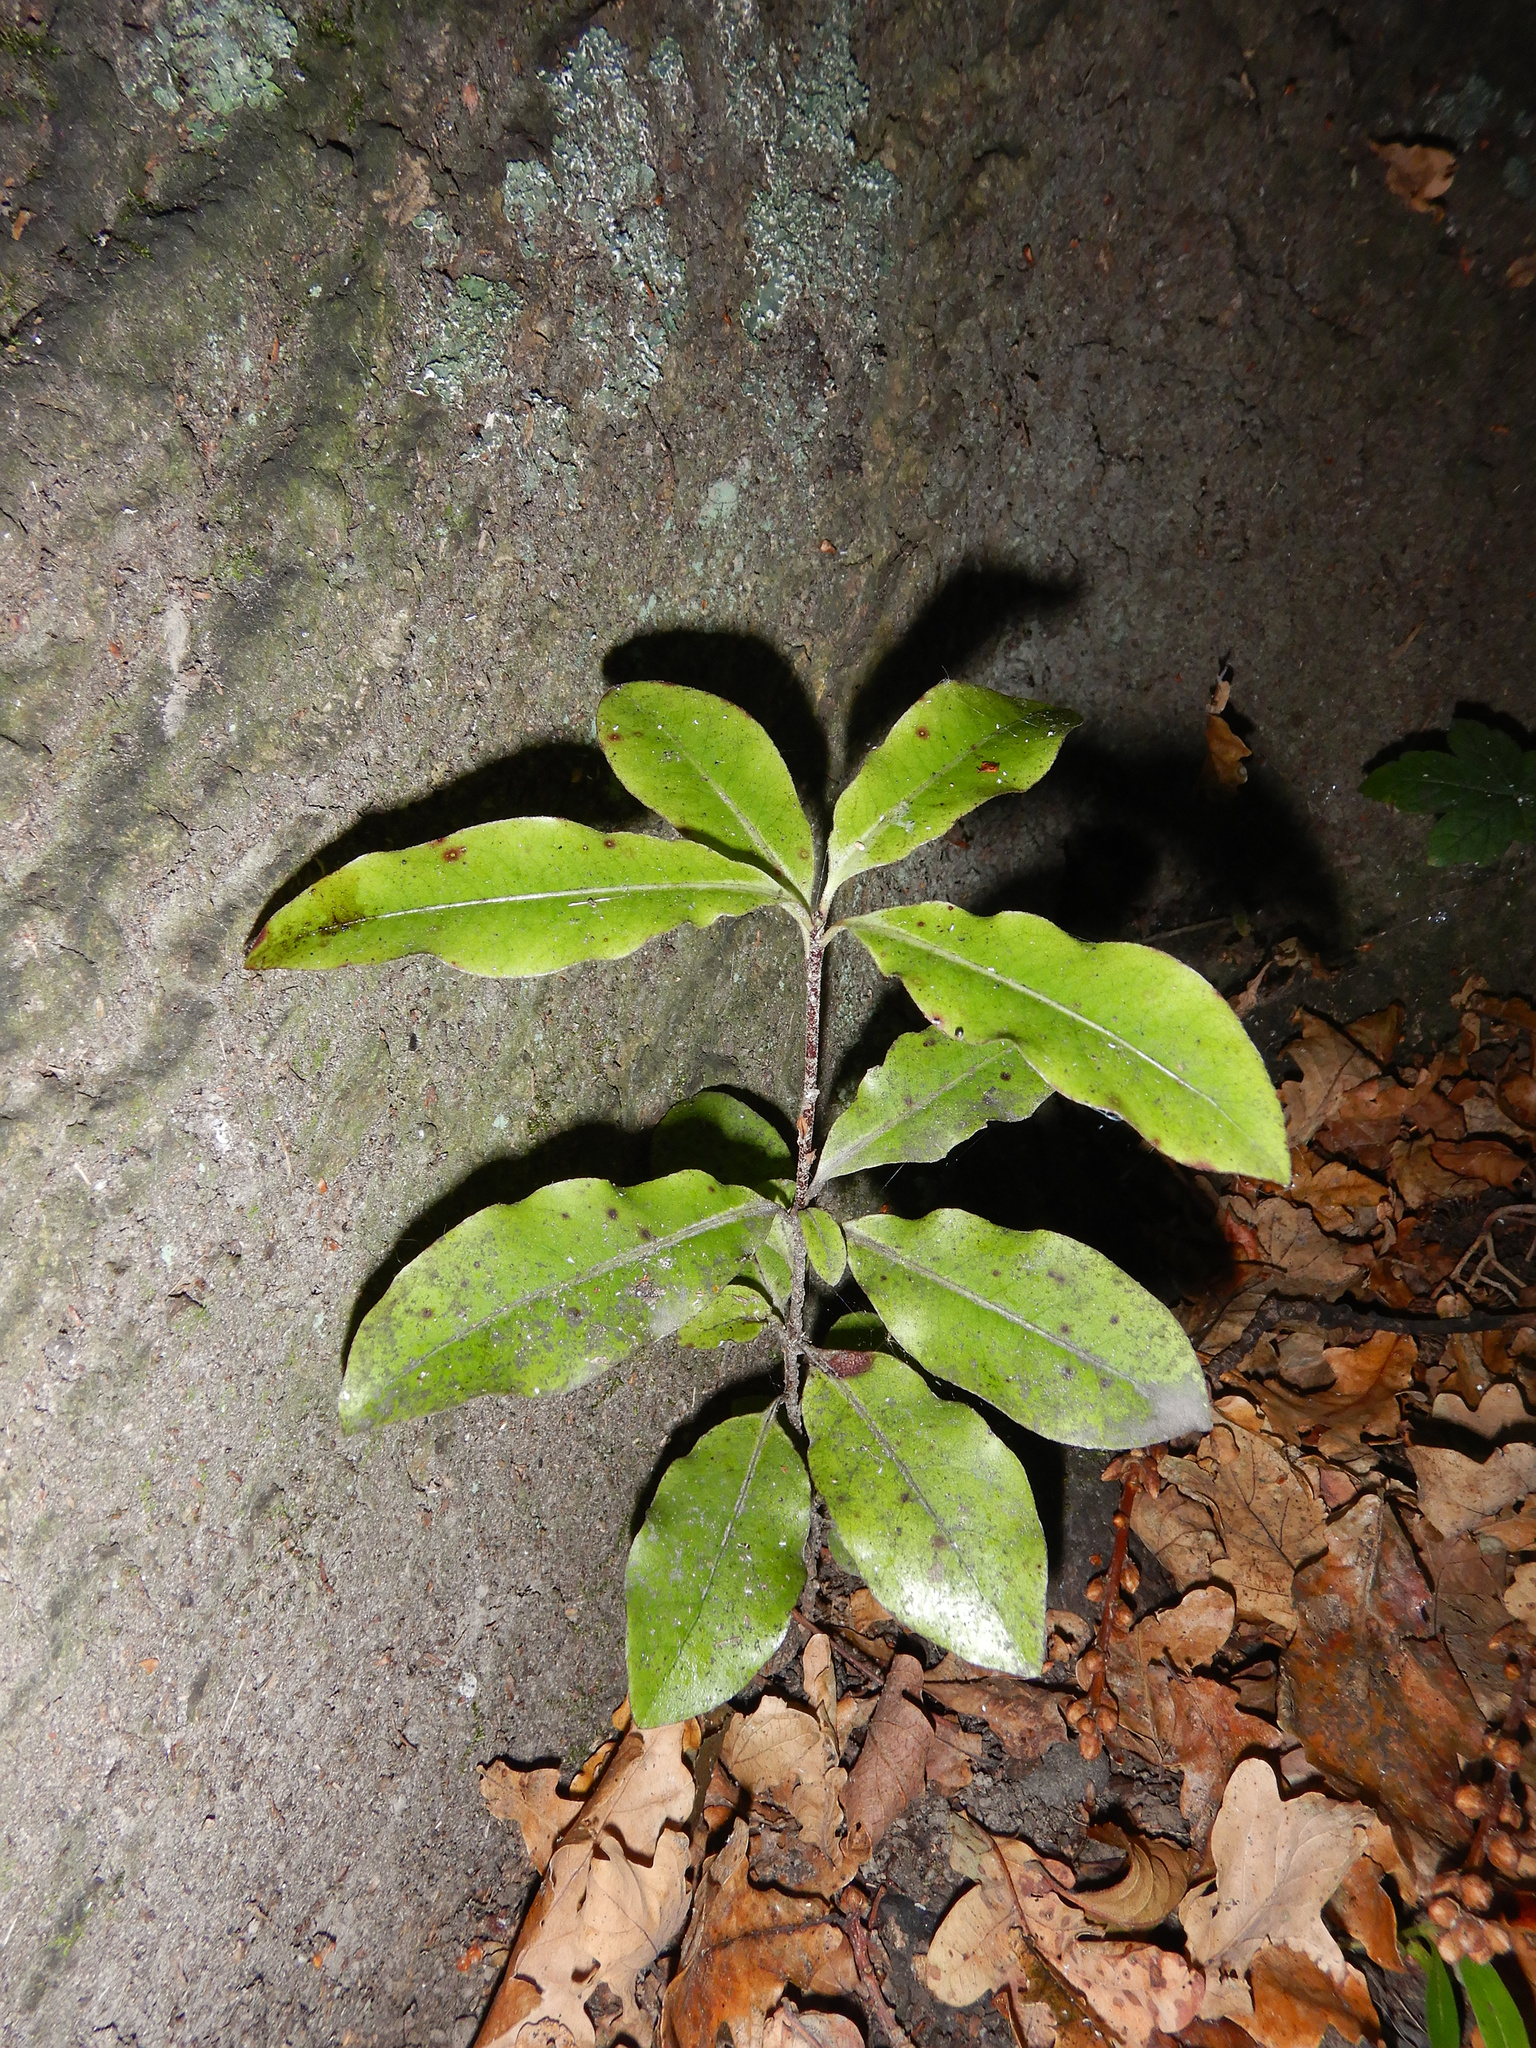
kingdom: Plantae
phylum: Tracheophyta
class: Magnoliopsida
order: Apiales
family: Pittosporaceae
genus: Pittosporum
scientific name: Pittosporum tenuifolium
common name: Kohuhu
